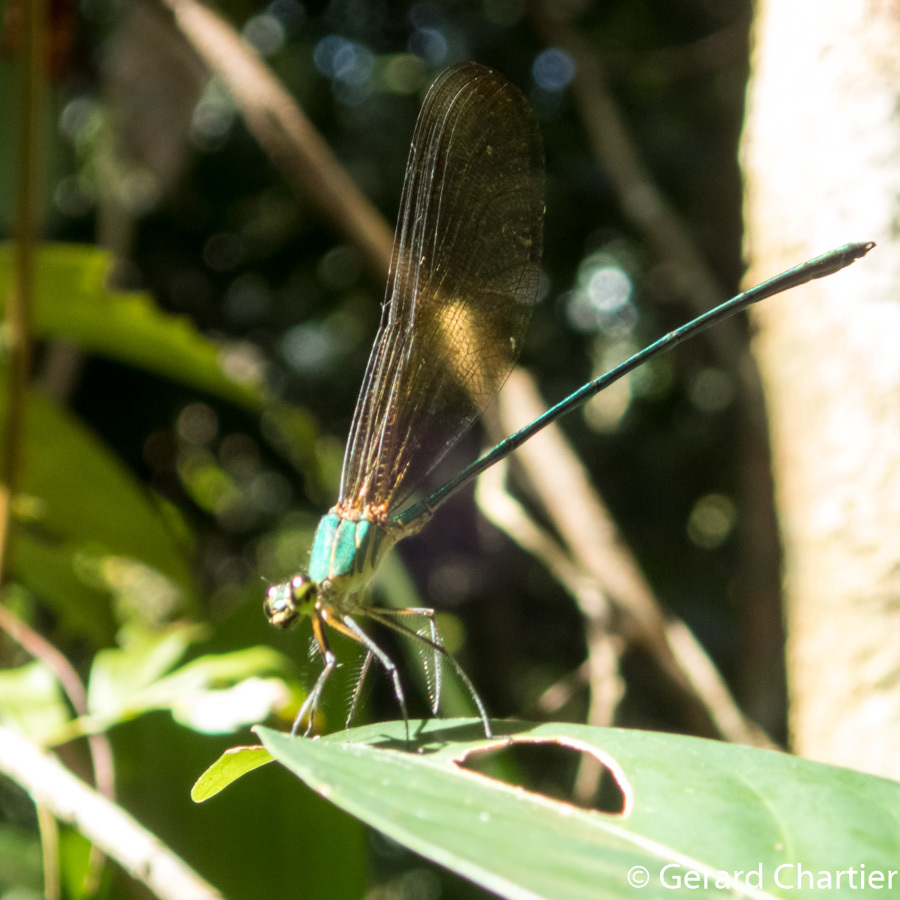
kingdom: Animalia
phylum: Arthropoda
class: Insecta
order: Odonata
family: Calopterygidae
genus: Vestalis
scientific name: Vestalis gracilis
